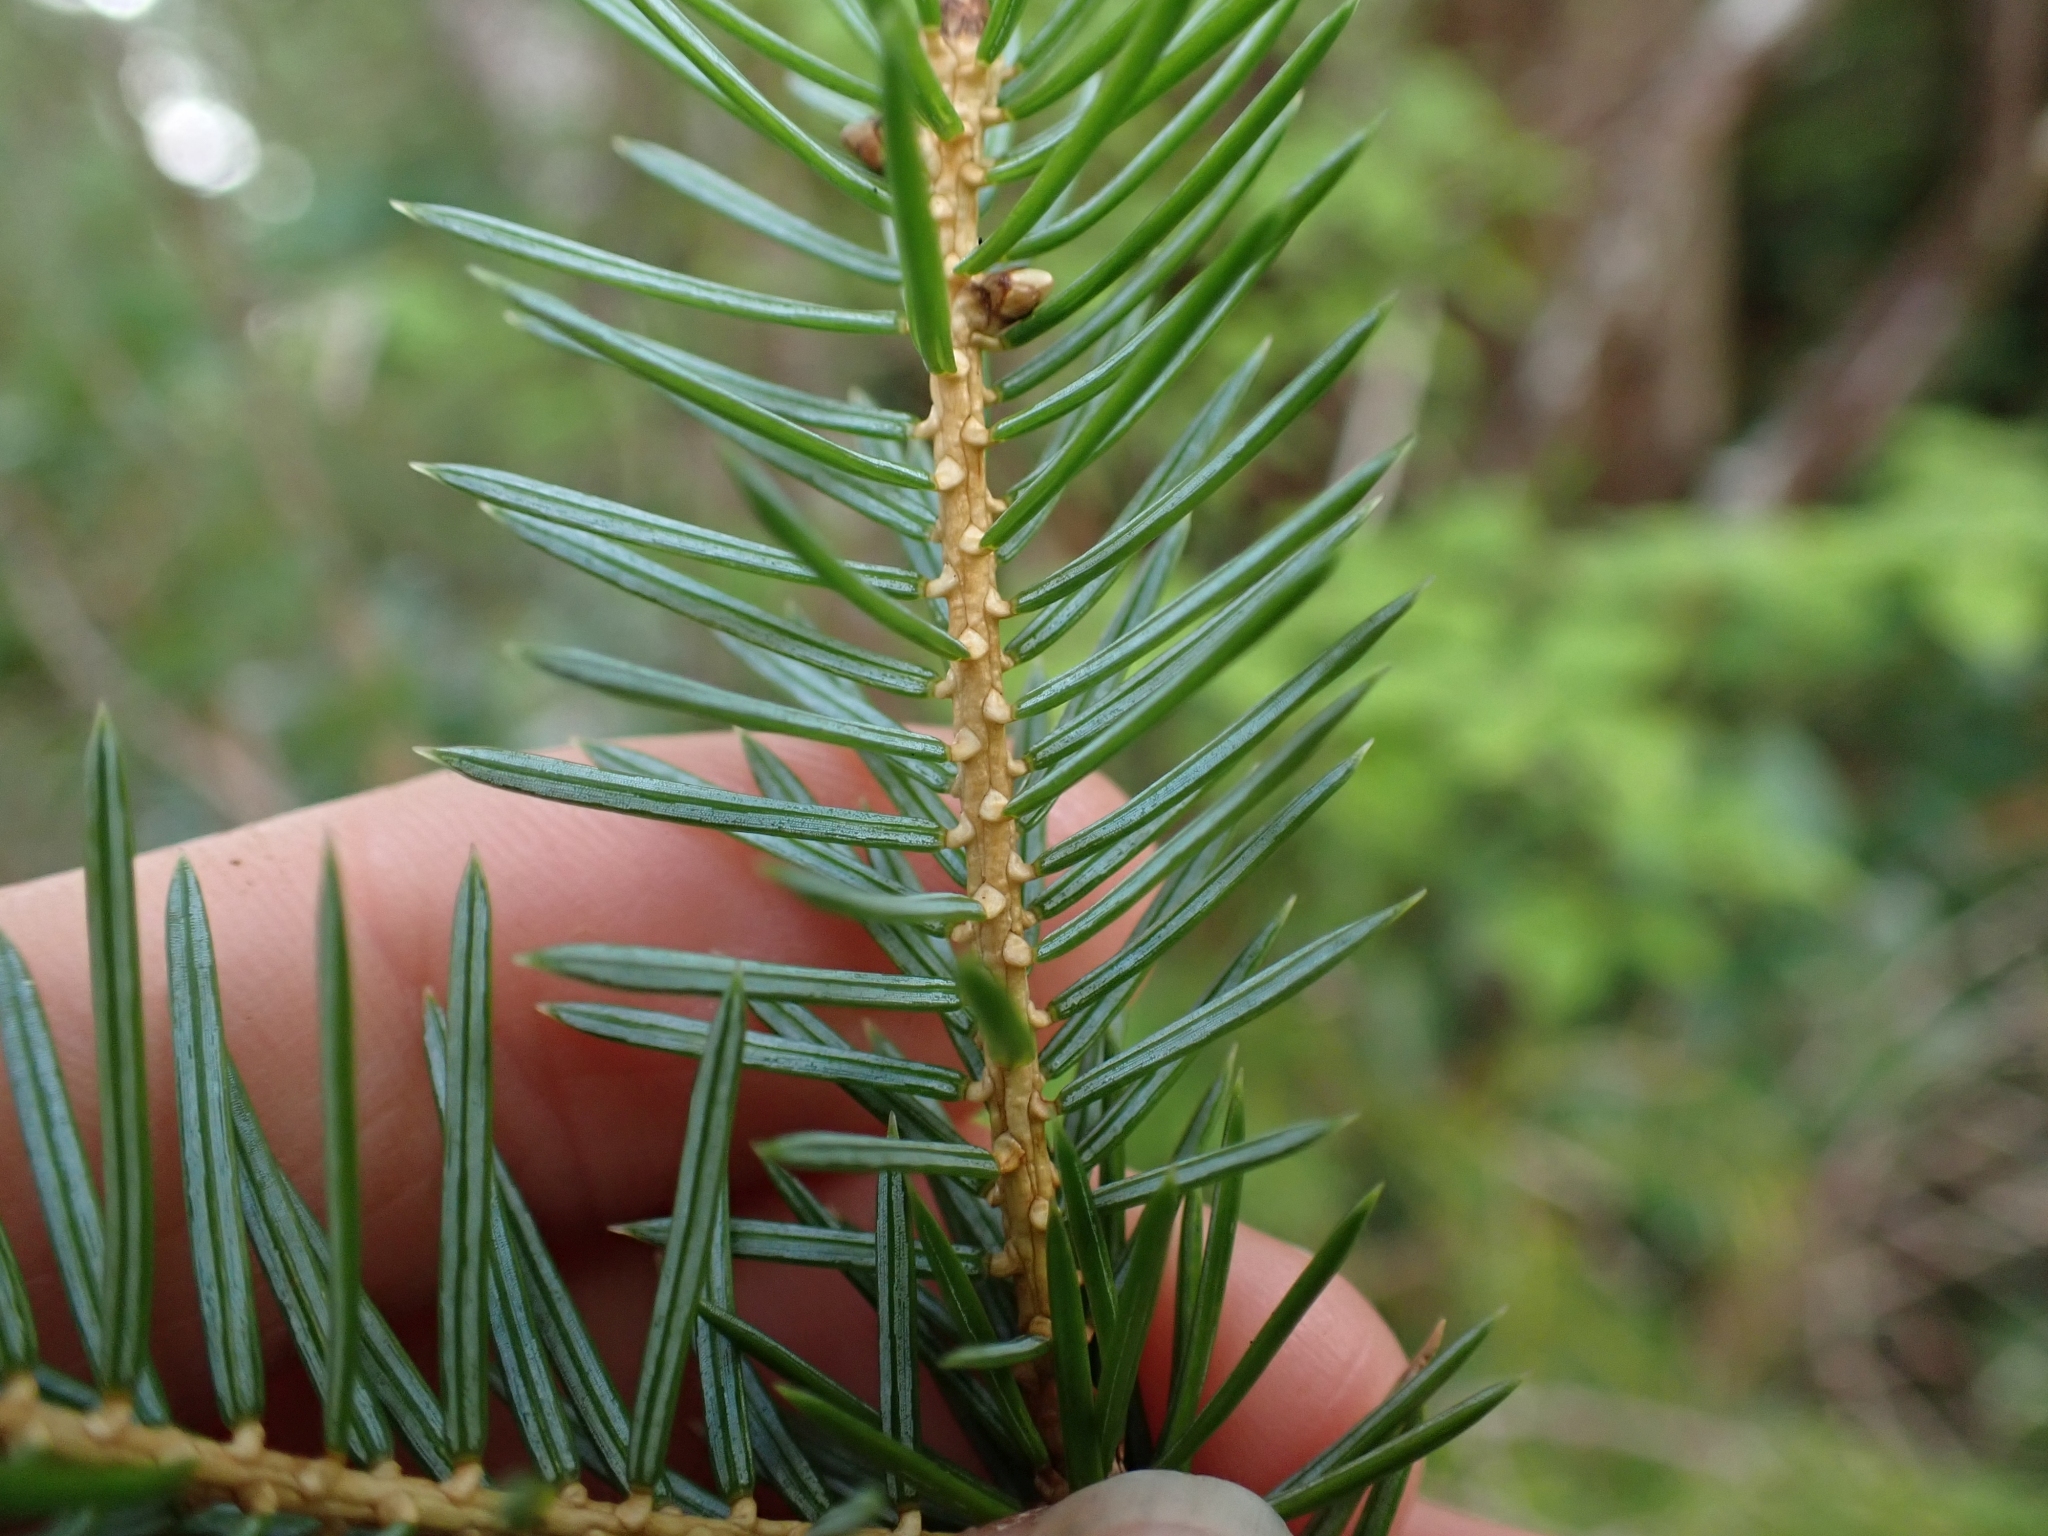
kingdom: Plantae
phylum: Tracheophyta
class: Pinopsida
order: Pinales
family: Pinaceae
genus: Picea
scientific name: Picea sitchensis
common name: Sitka spruce
